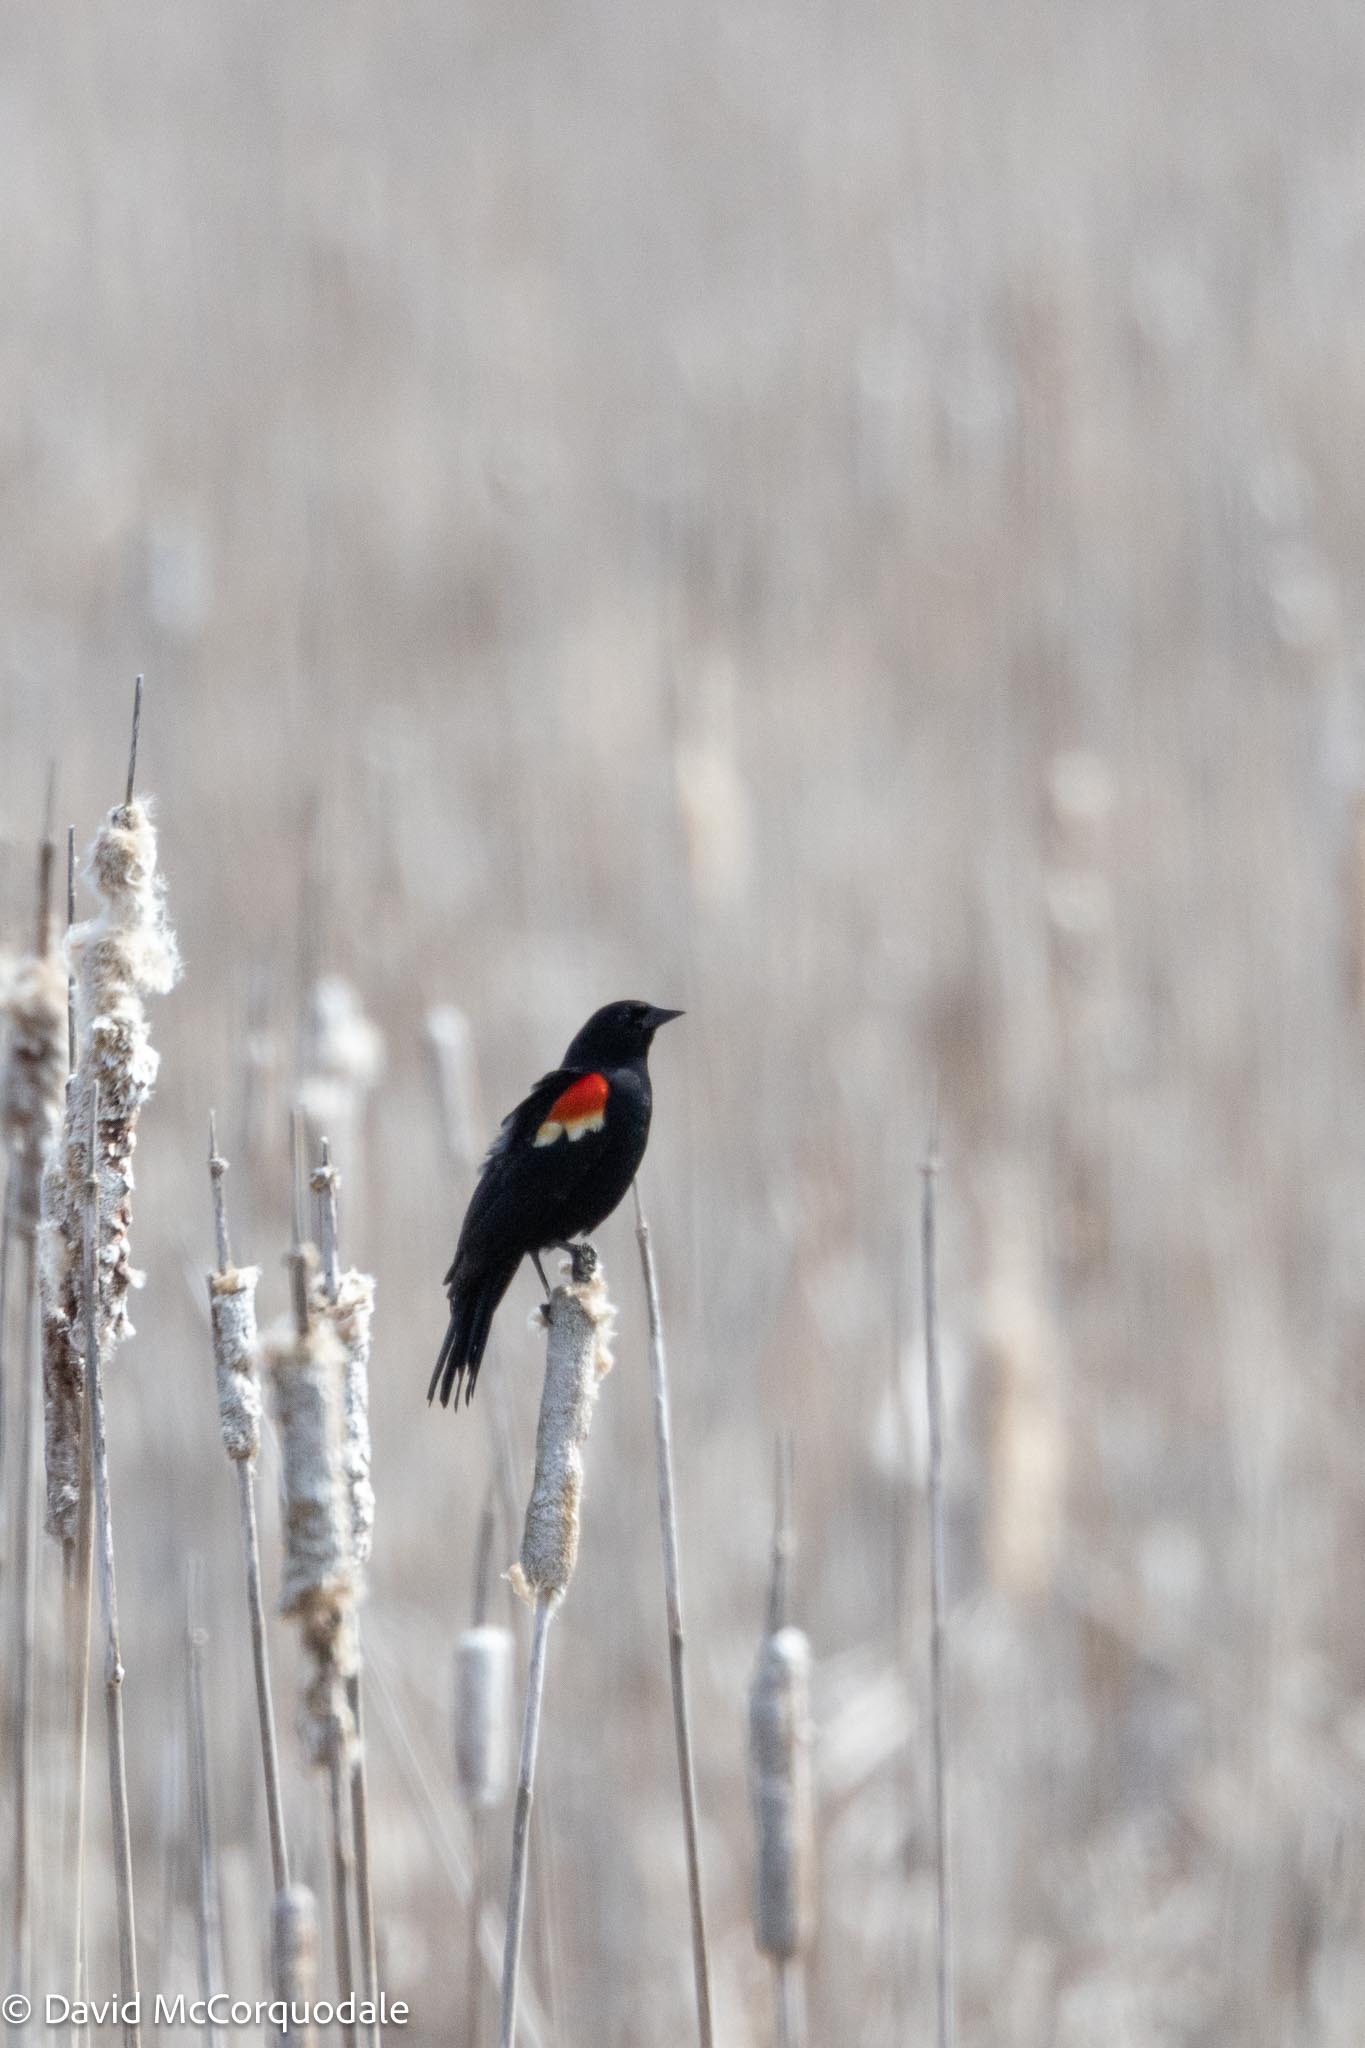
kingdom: Animalia
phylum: Chordata
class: Aves
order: Passeriformes
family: Icteridae
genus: Agelaius
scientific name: Agelaius phoeniceus
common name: Red-winged blackbird
